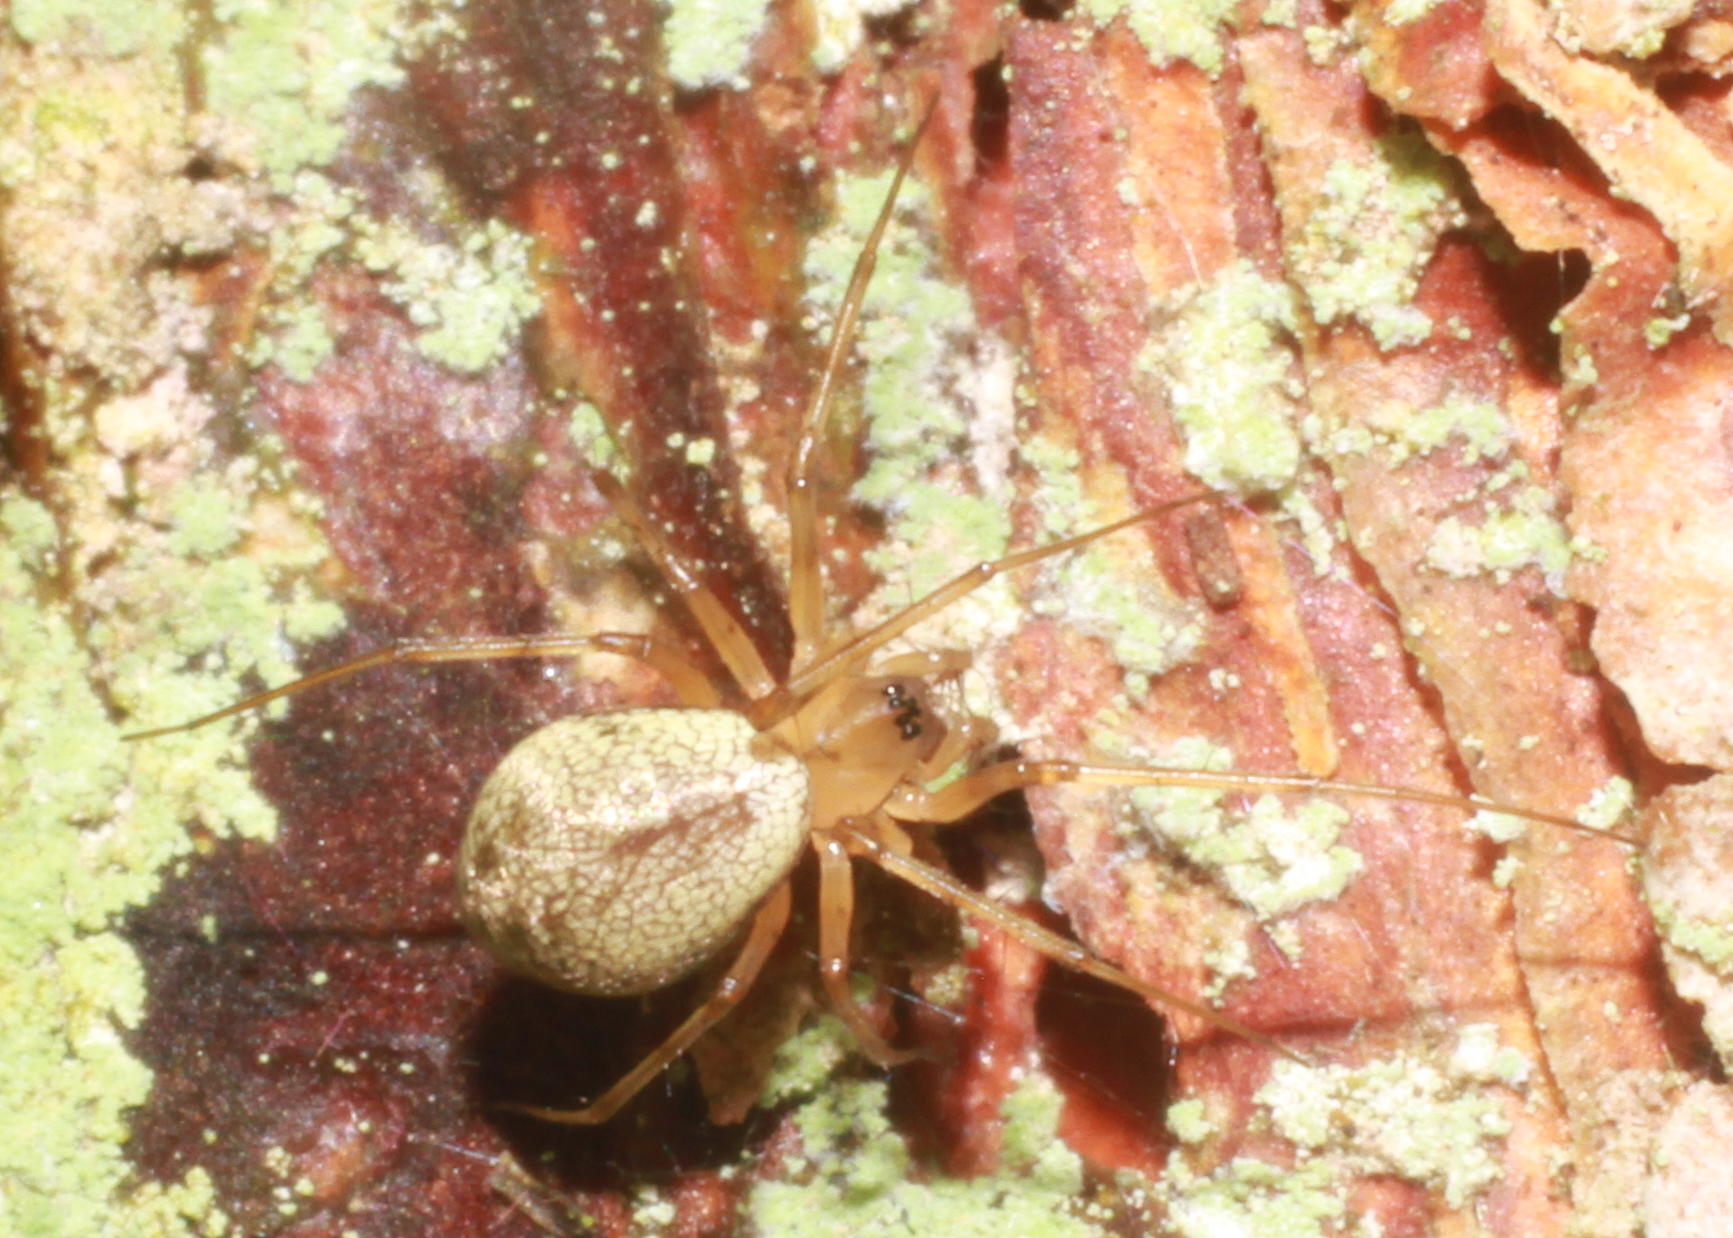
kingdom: Animalia
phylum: Arthropoda
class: Arachnida
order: Araneae
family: Linyphiidae
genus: Drapetisca
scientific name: Drapetisca socialis
